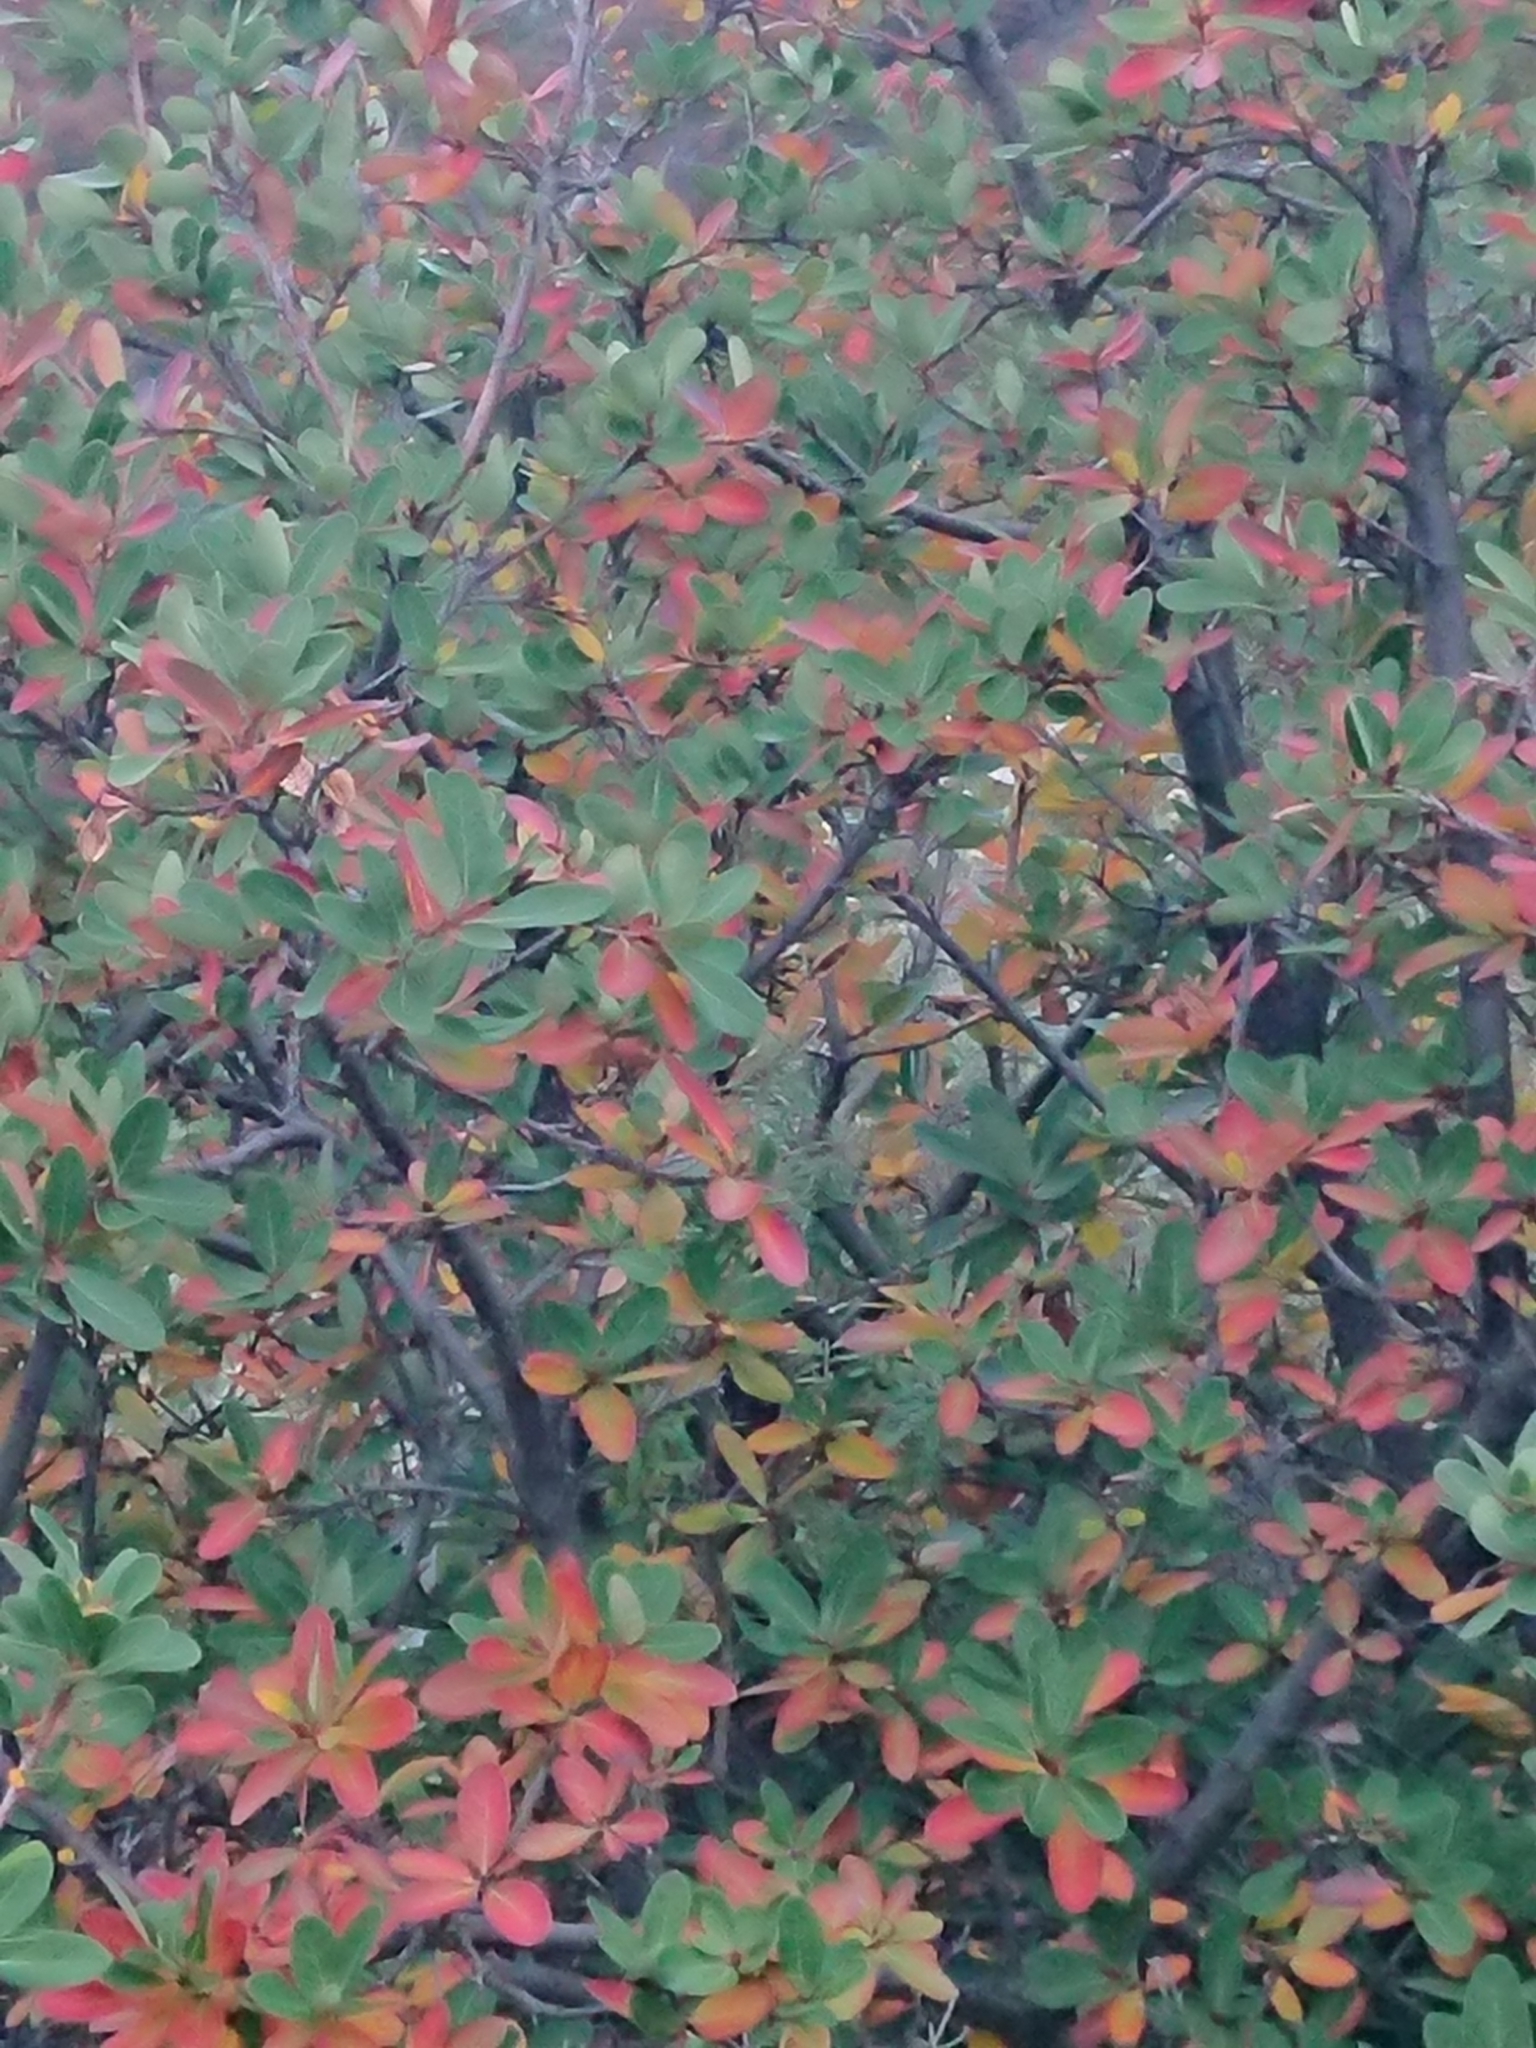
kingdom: Plantae
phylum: Tracheophyta
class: Magnoliopsida
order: Proteales
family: Proteaceae
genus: Embothrium
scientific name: Embothrium coccineum
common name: Chilean firebush
